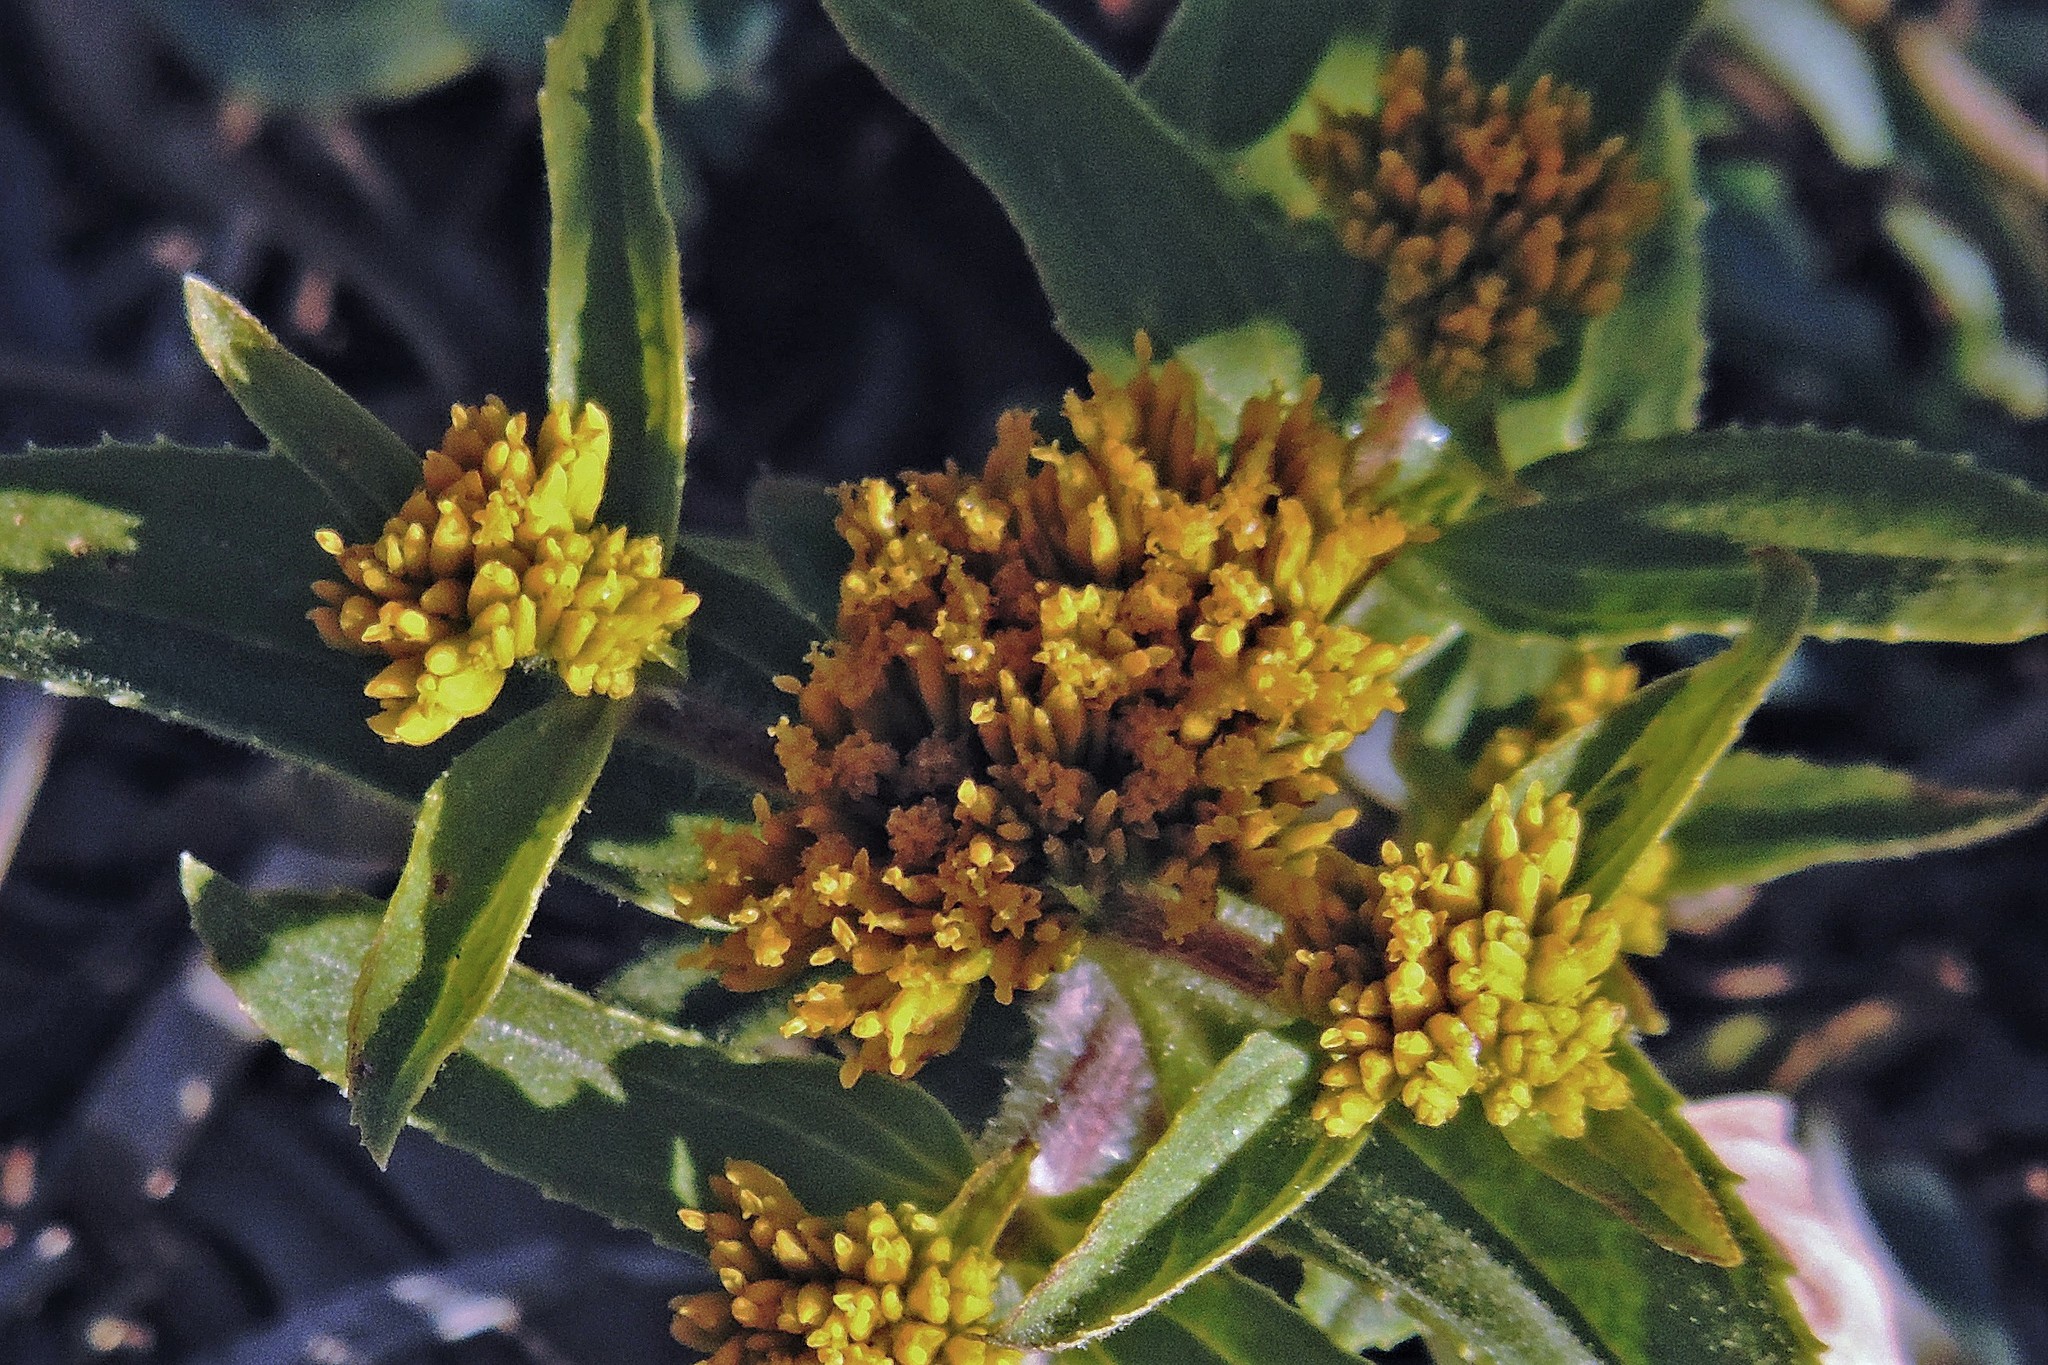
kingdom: Plantae
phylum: Tracheophyta
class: Magnoliopsida
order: Asterales
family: Asteraceae
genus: Flaveria
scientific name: Flaveria bidentis
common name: Coastal plain yellowtops
